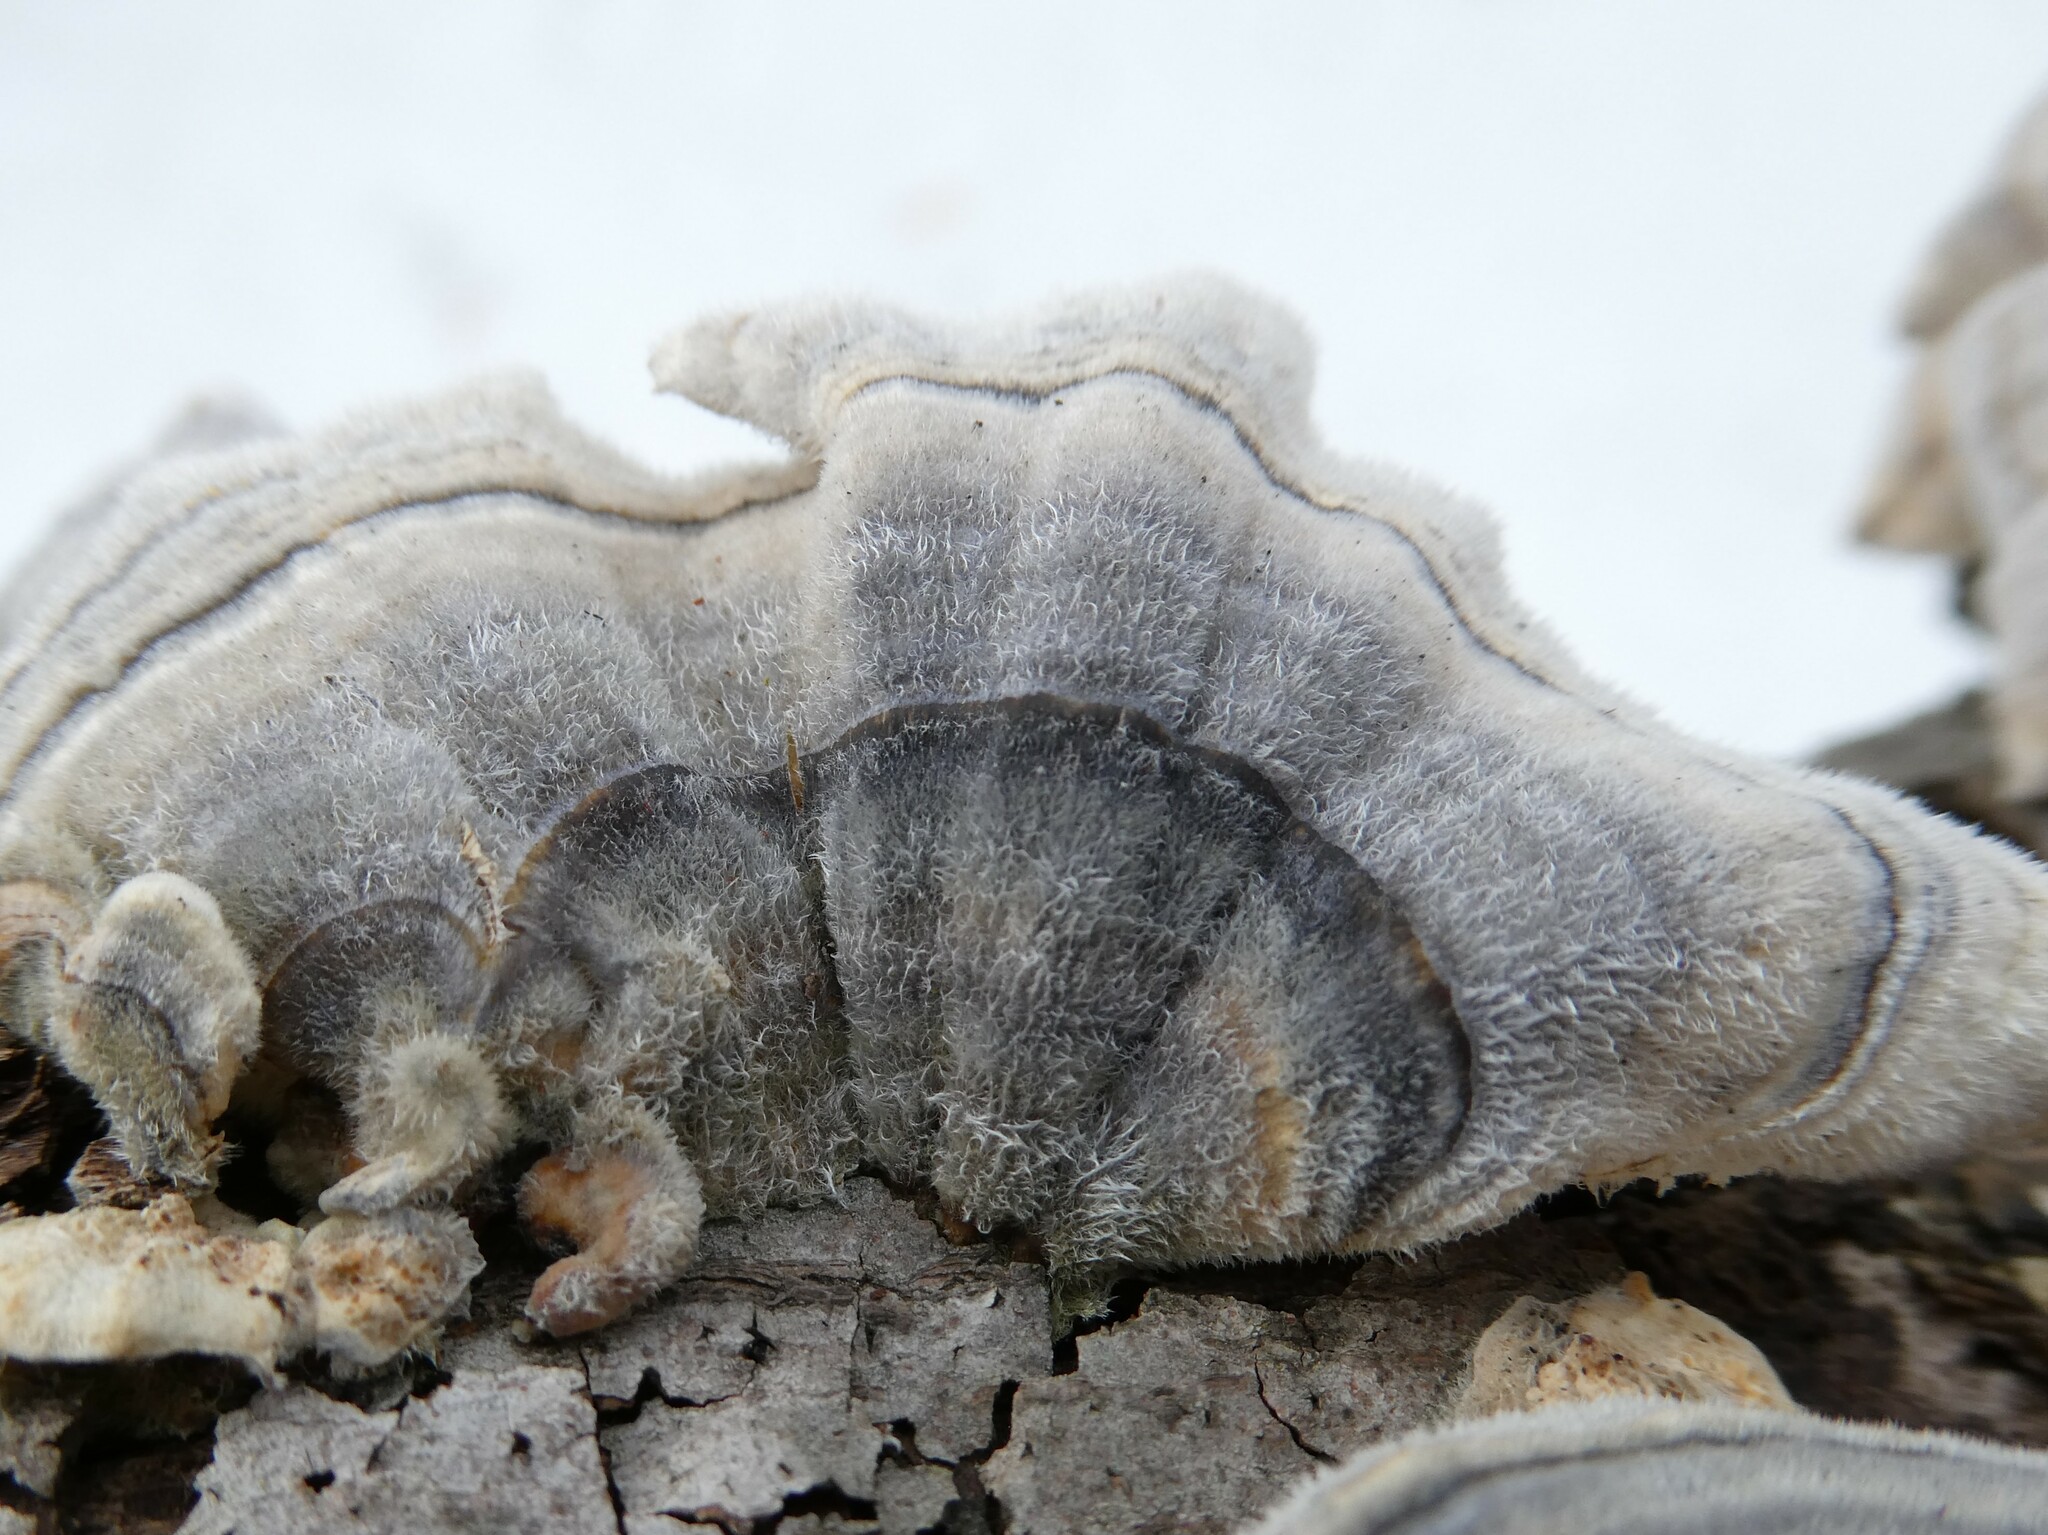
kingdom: Fungi
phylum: Basidiomycota
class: Agaricomycetes
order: Polyporales
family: Polyporaceae
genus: Trametes
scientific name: Trametes versicolor
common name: Turkeytail
